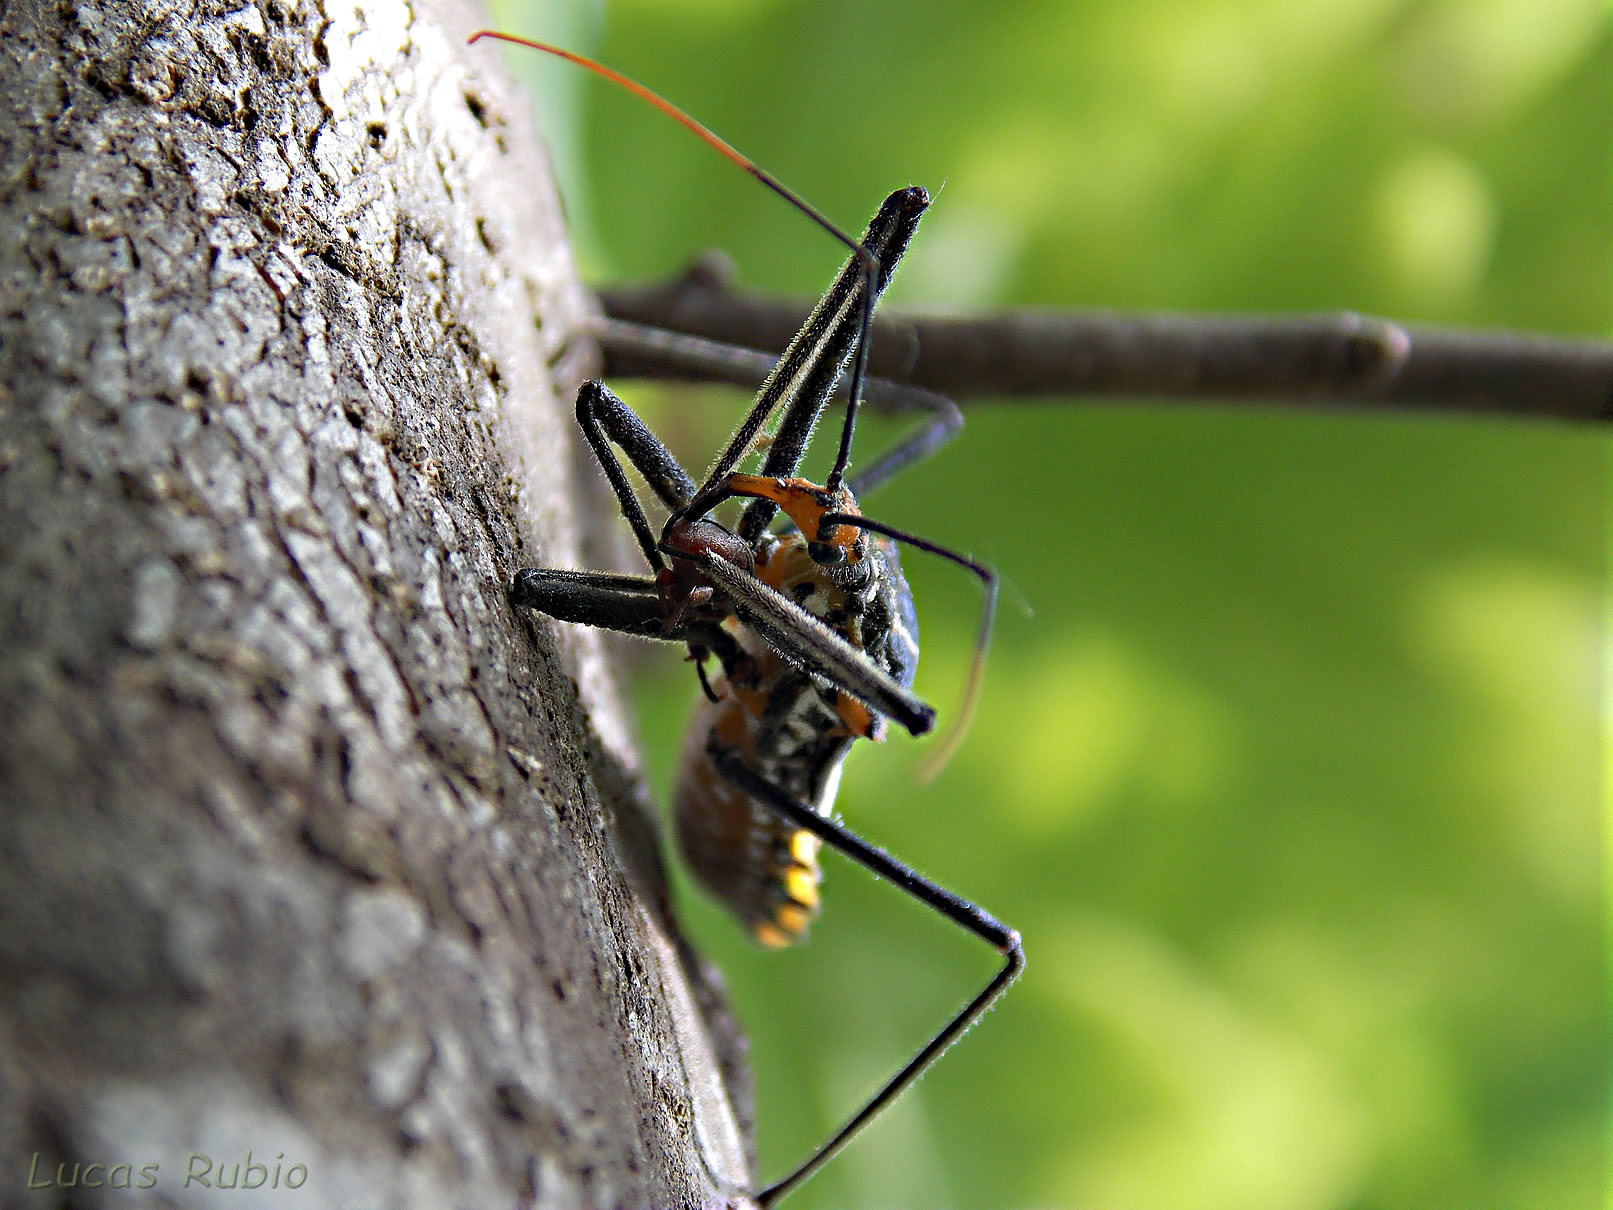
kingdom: Animalia
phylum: Arthropoda
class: Insecta
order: Hemiptera
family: Reduviidae
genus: Zelus
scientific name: Zelus leucogrammus
